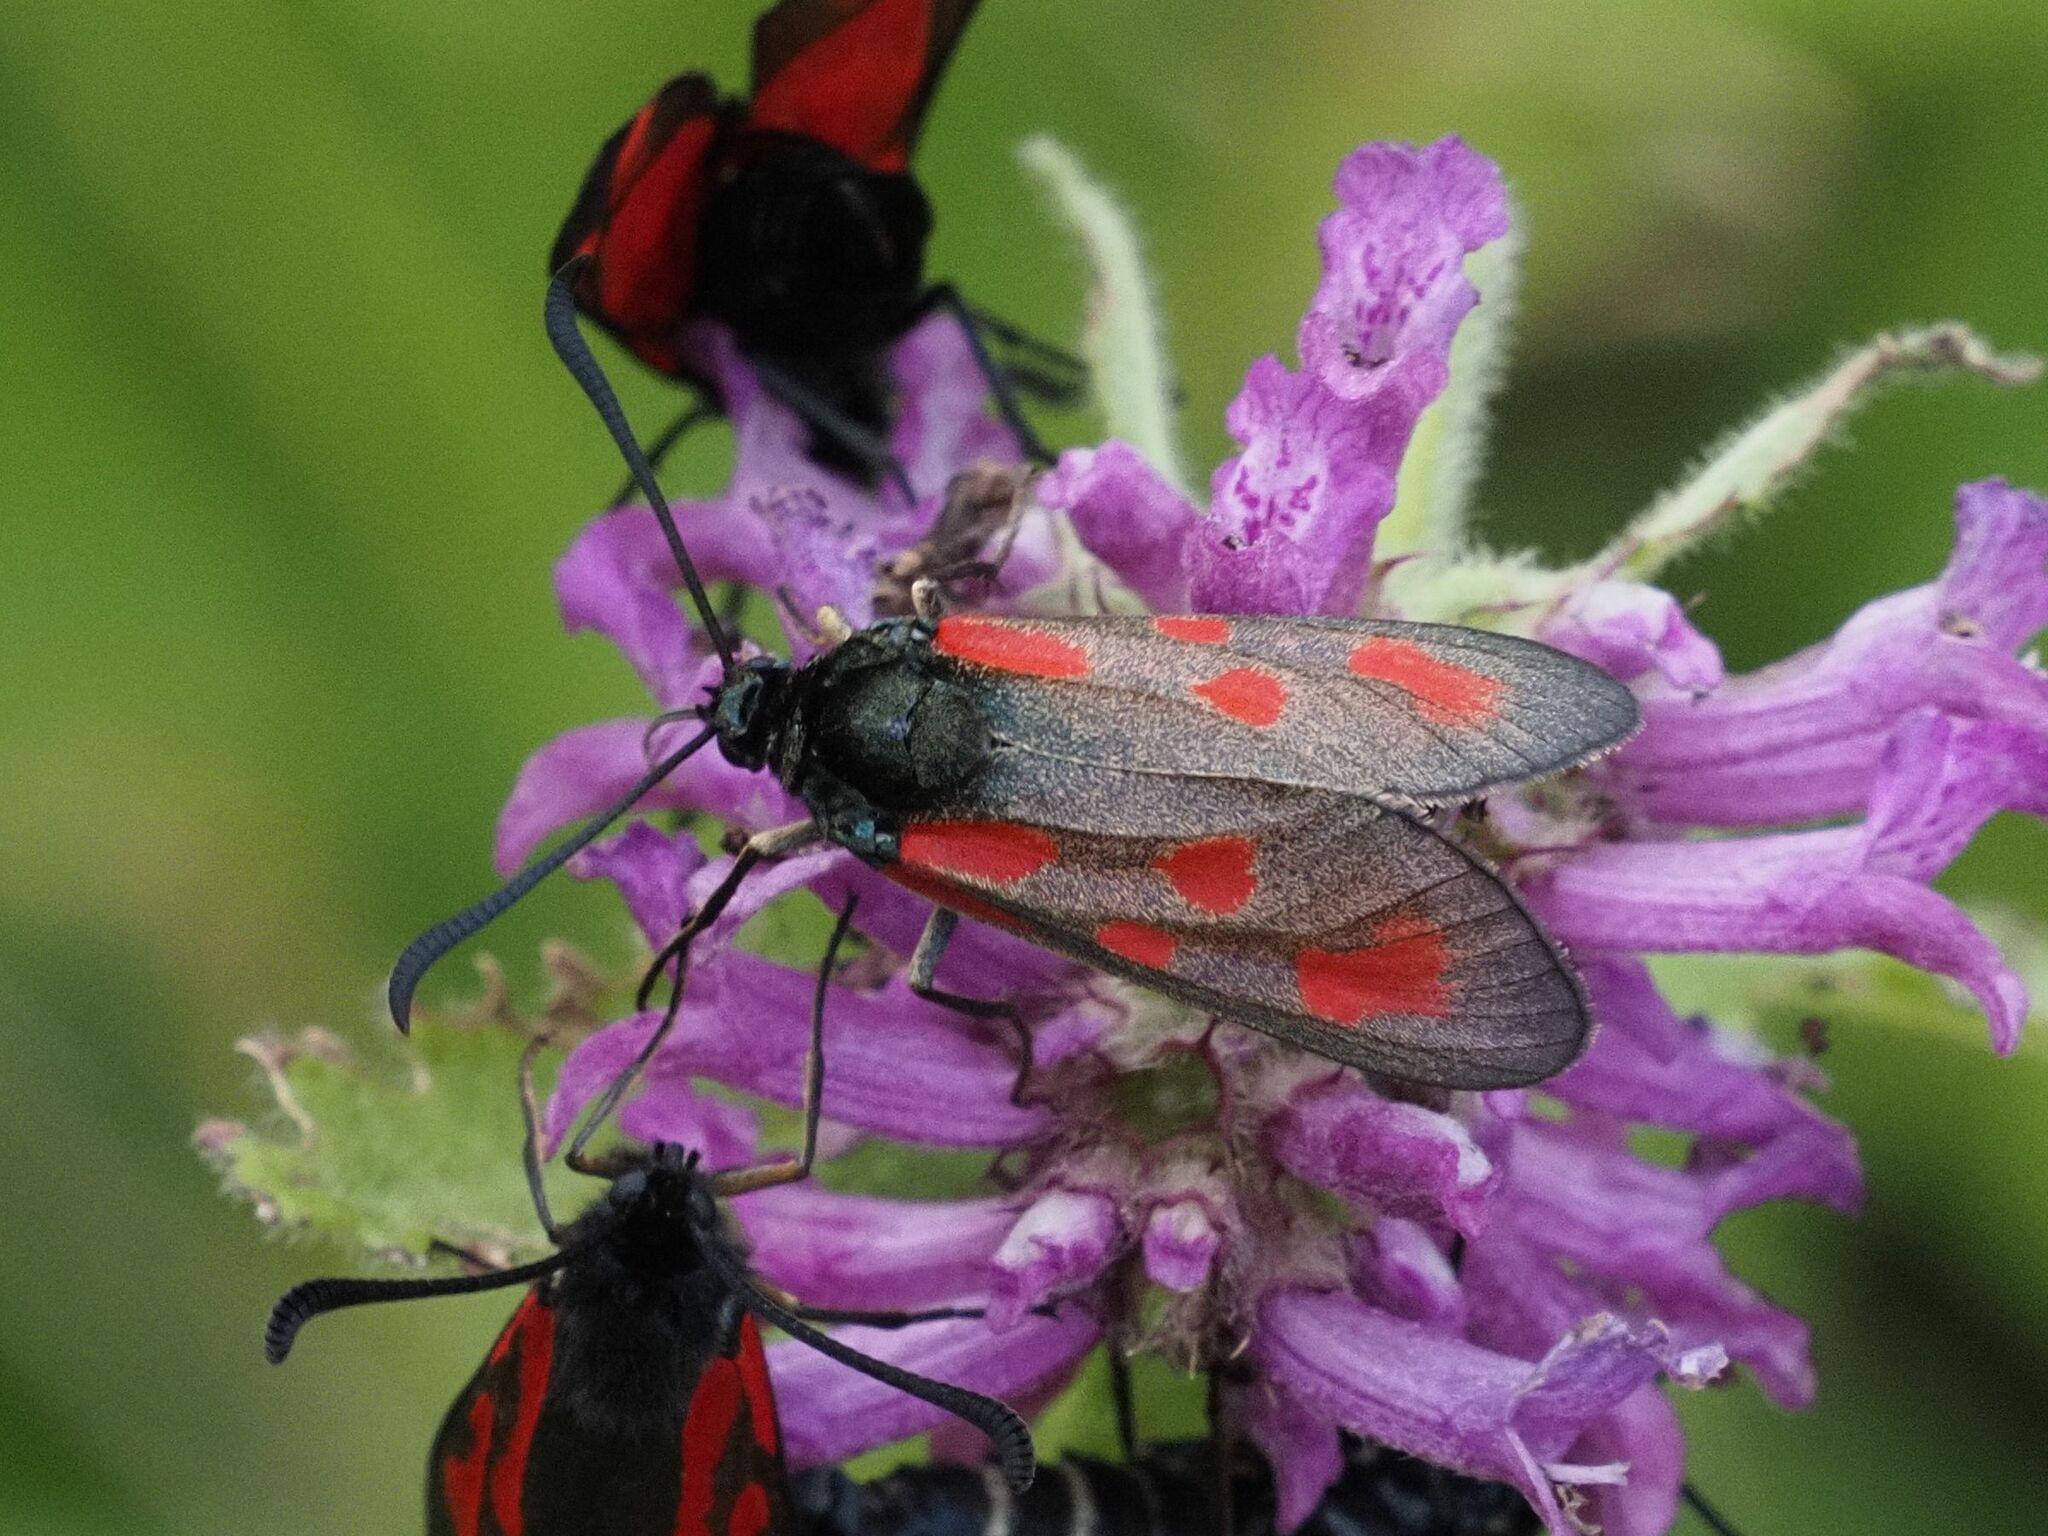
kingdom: Animalia
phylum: Arthropoda
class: Insecta
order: Lepidoptera
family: Zygaenidae
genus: Zygaena
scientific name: Zygaena loti
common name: Slender scotch burnet
